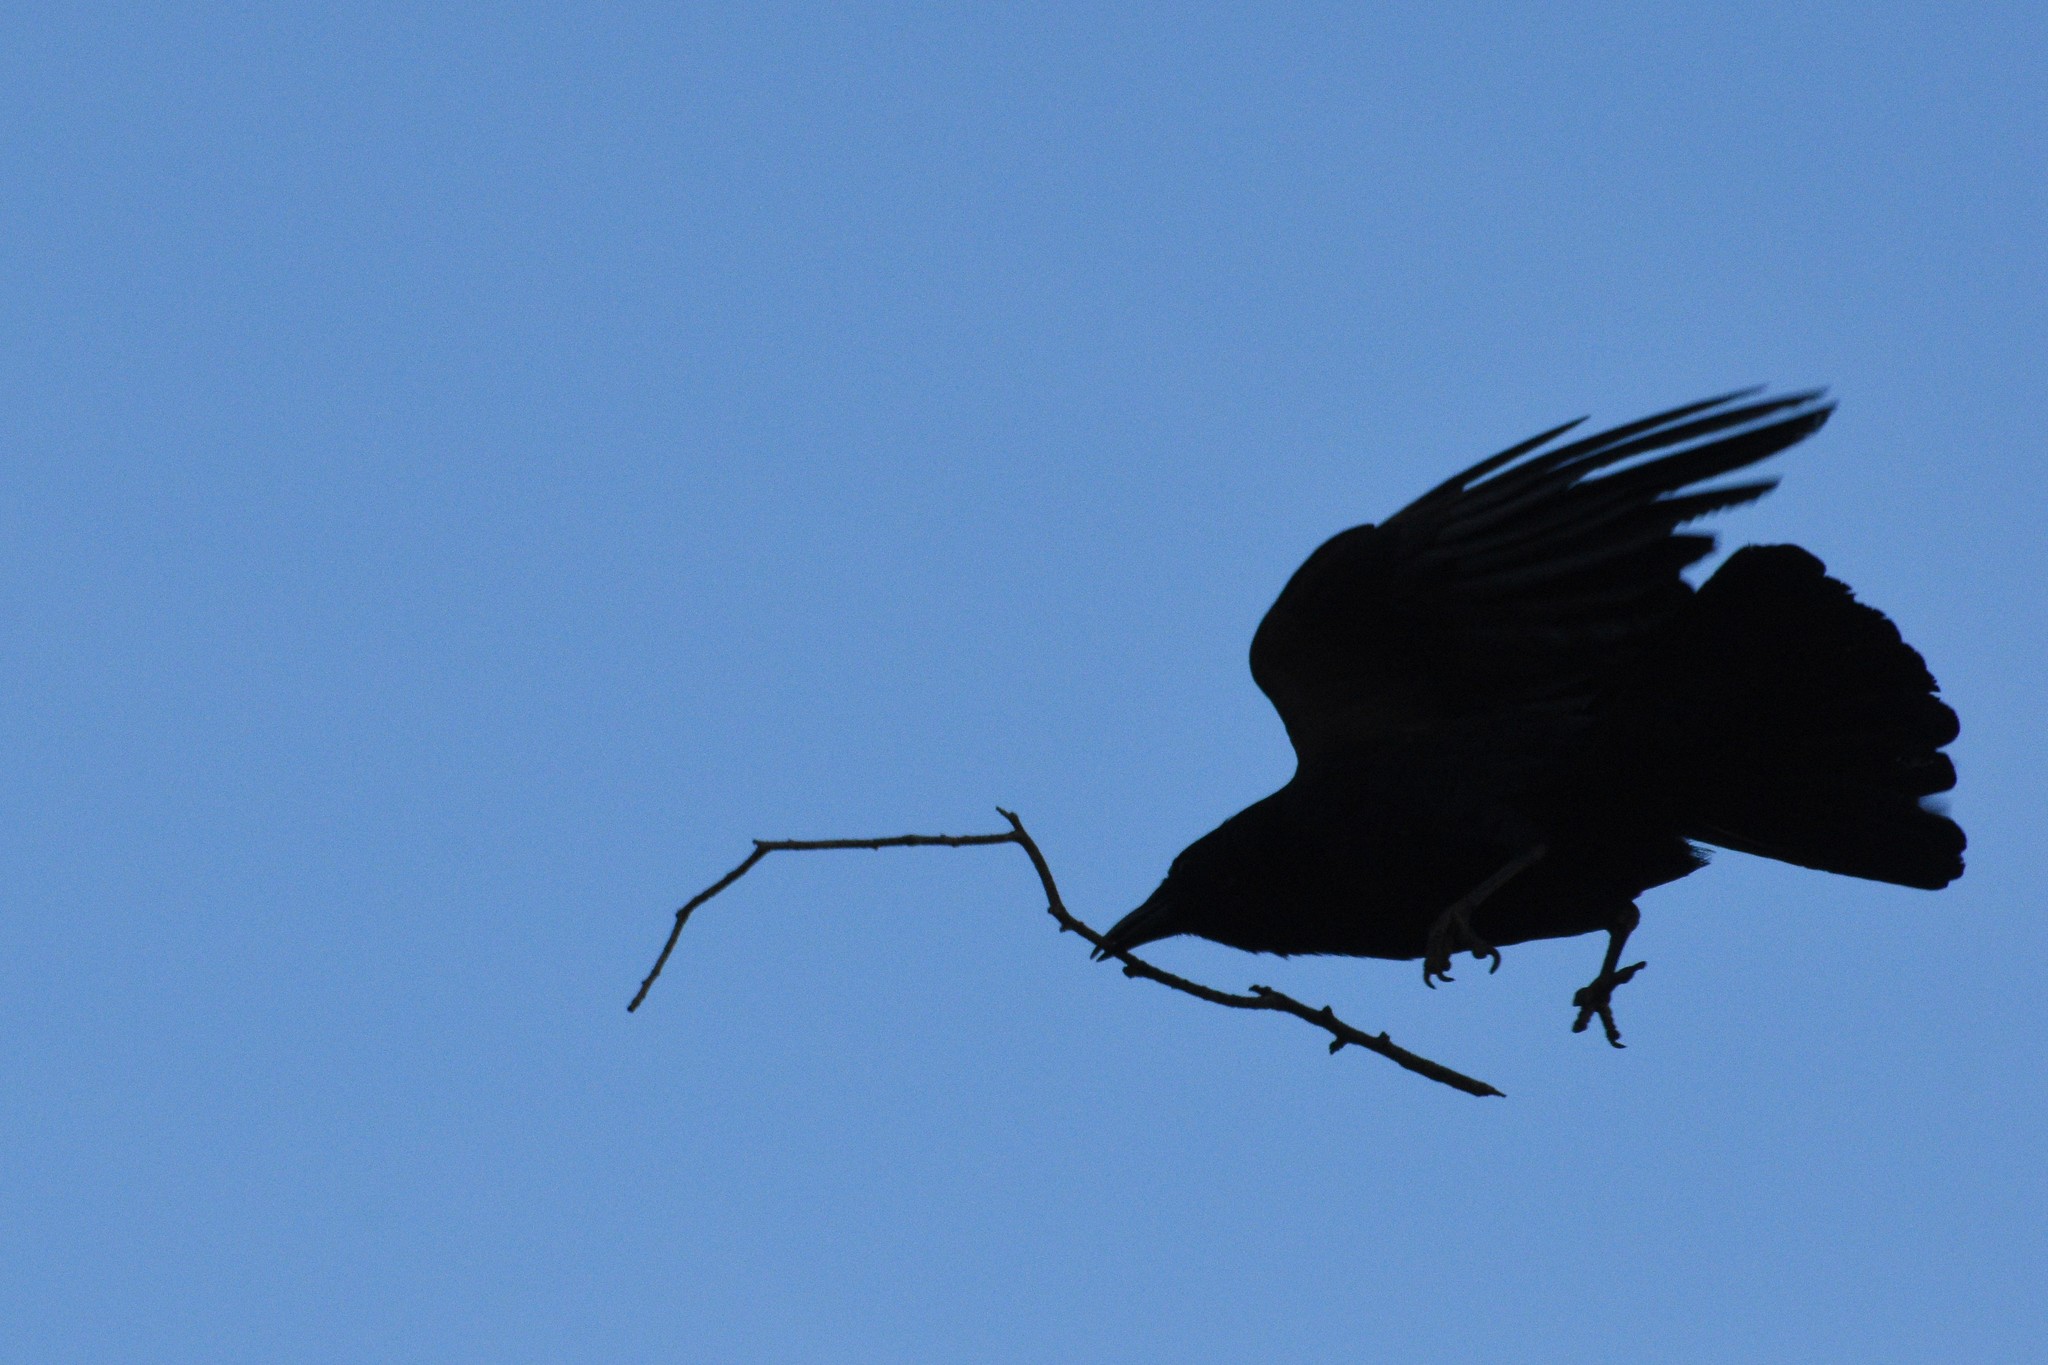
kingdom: Animalia
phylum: Chordata
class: Aves
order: Passeriformes
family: Corvidae
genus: Corvus
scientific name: Corvus brachyrhynchos
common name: American crow
